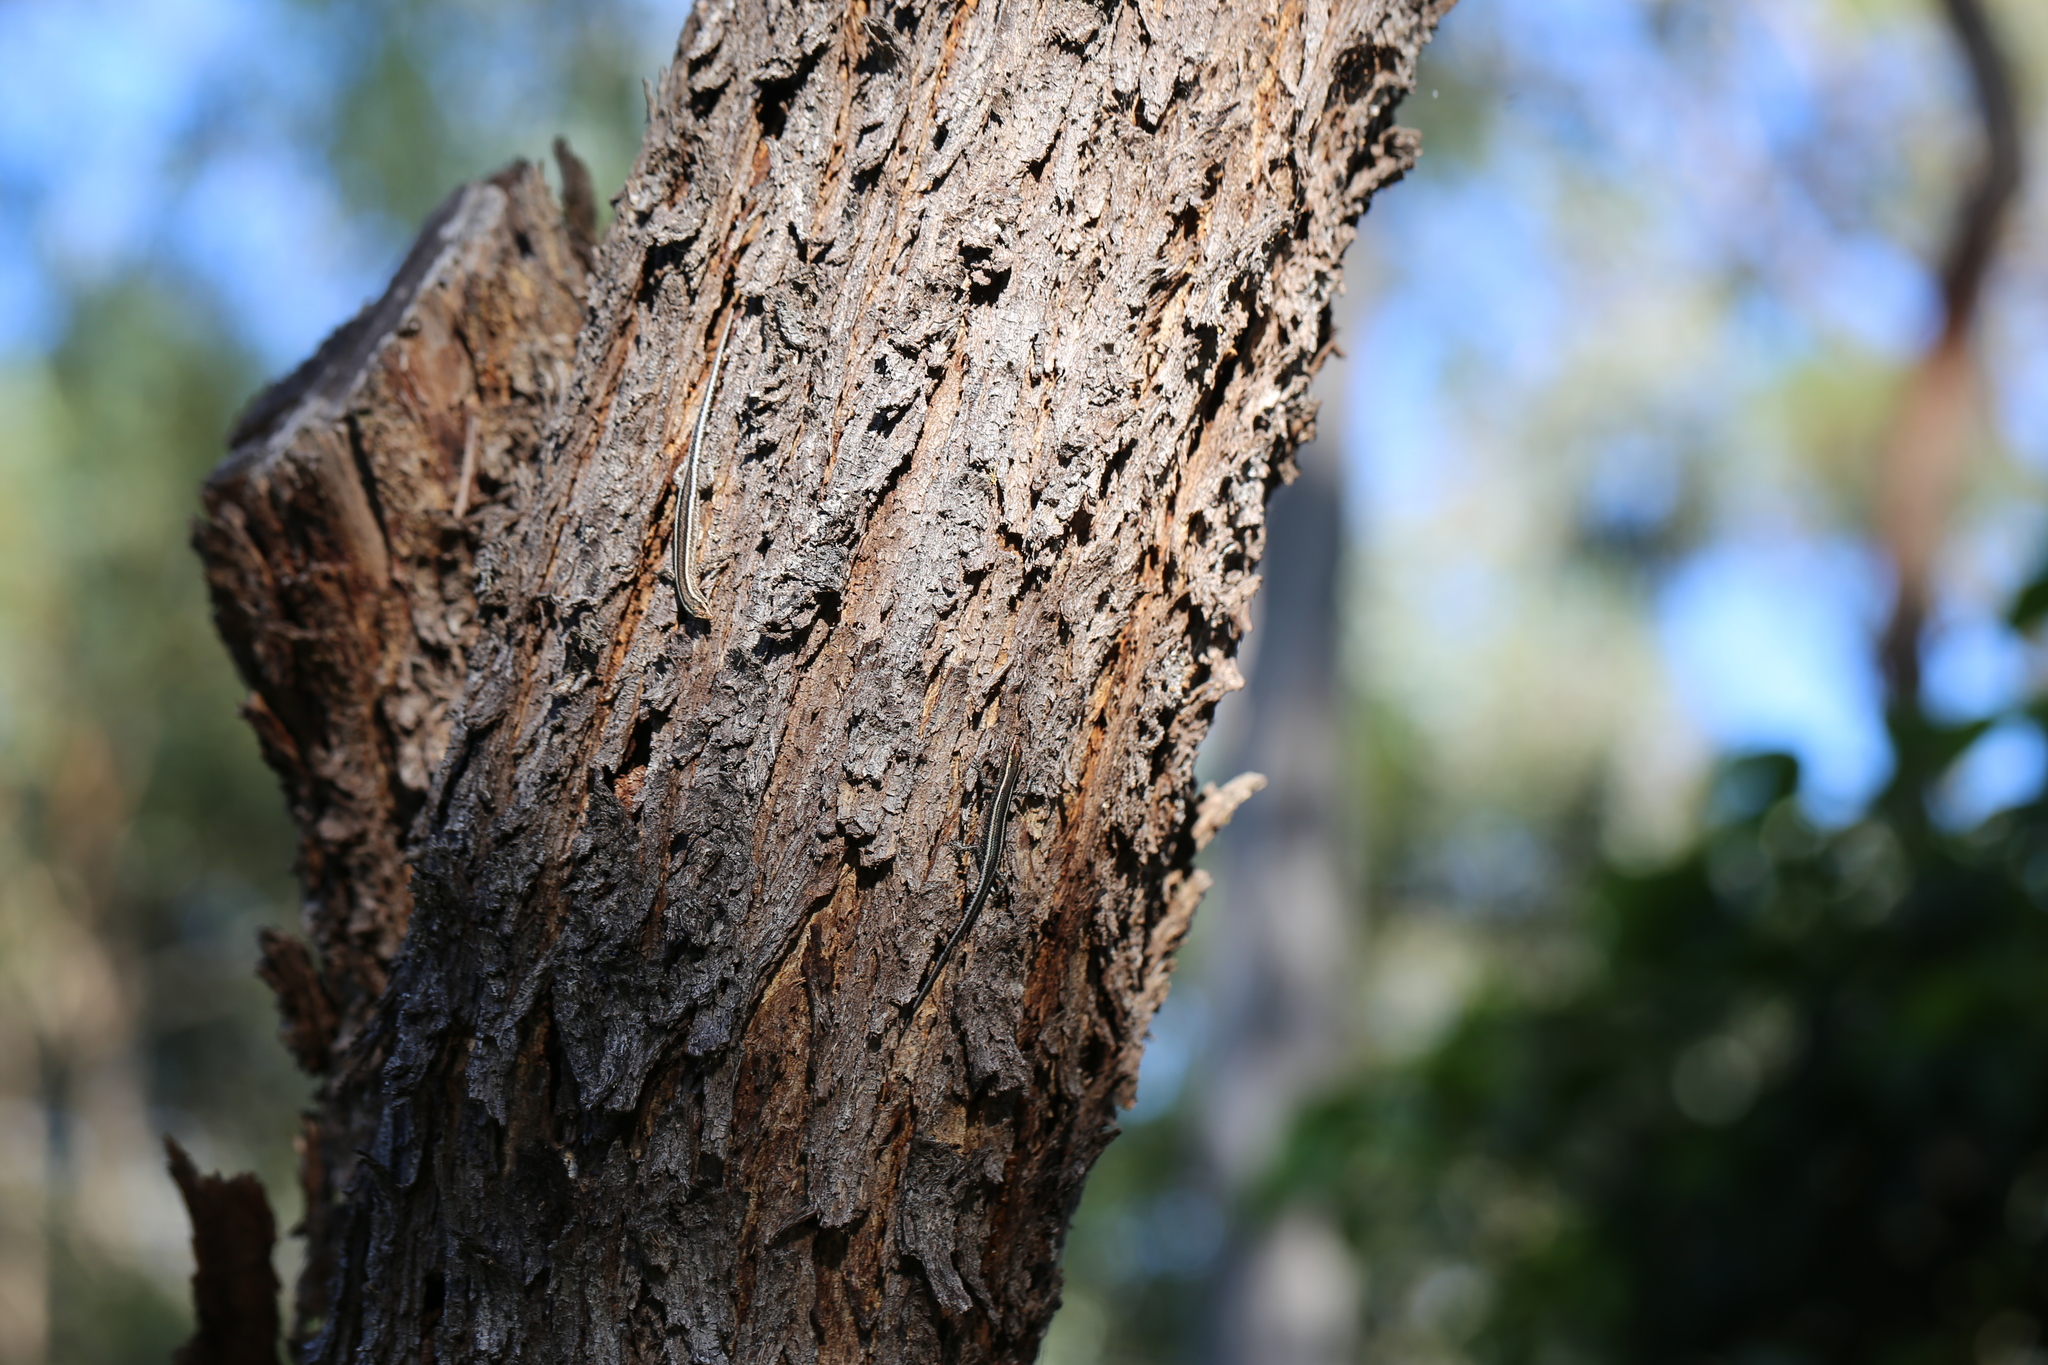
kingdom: Animalia
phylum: Chordata
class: Squamata
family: Scincidae
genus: Cryptoblepharus
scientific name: Cryptoblepharus pulcher
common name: Elegant snake-eyed skink
